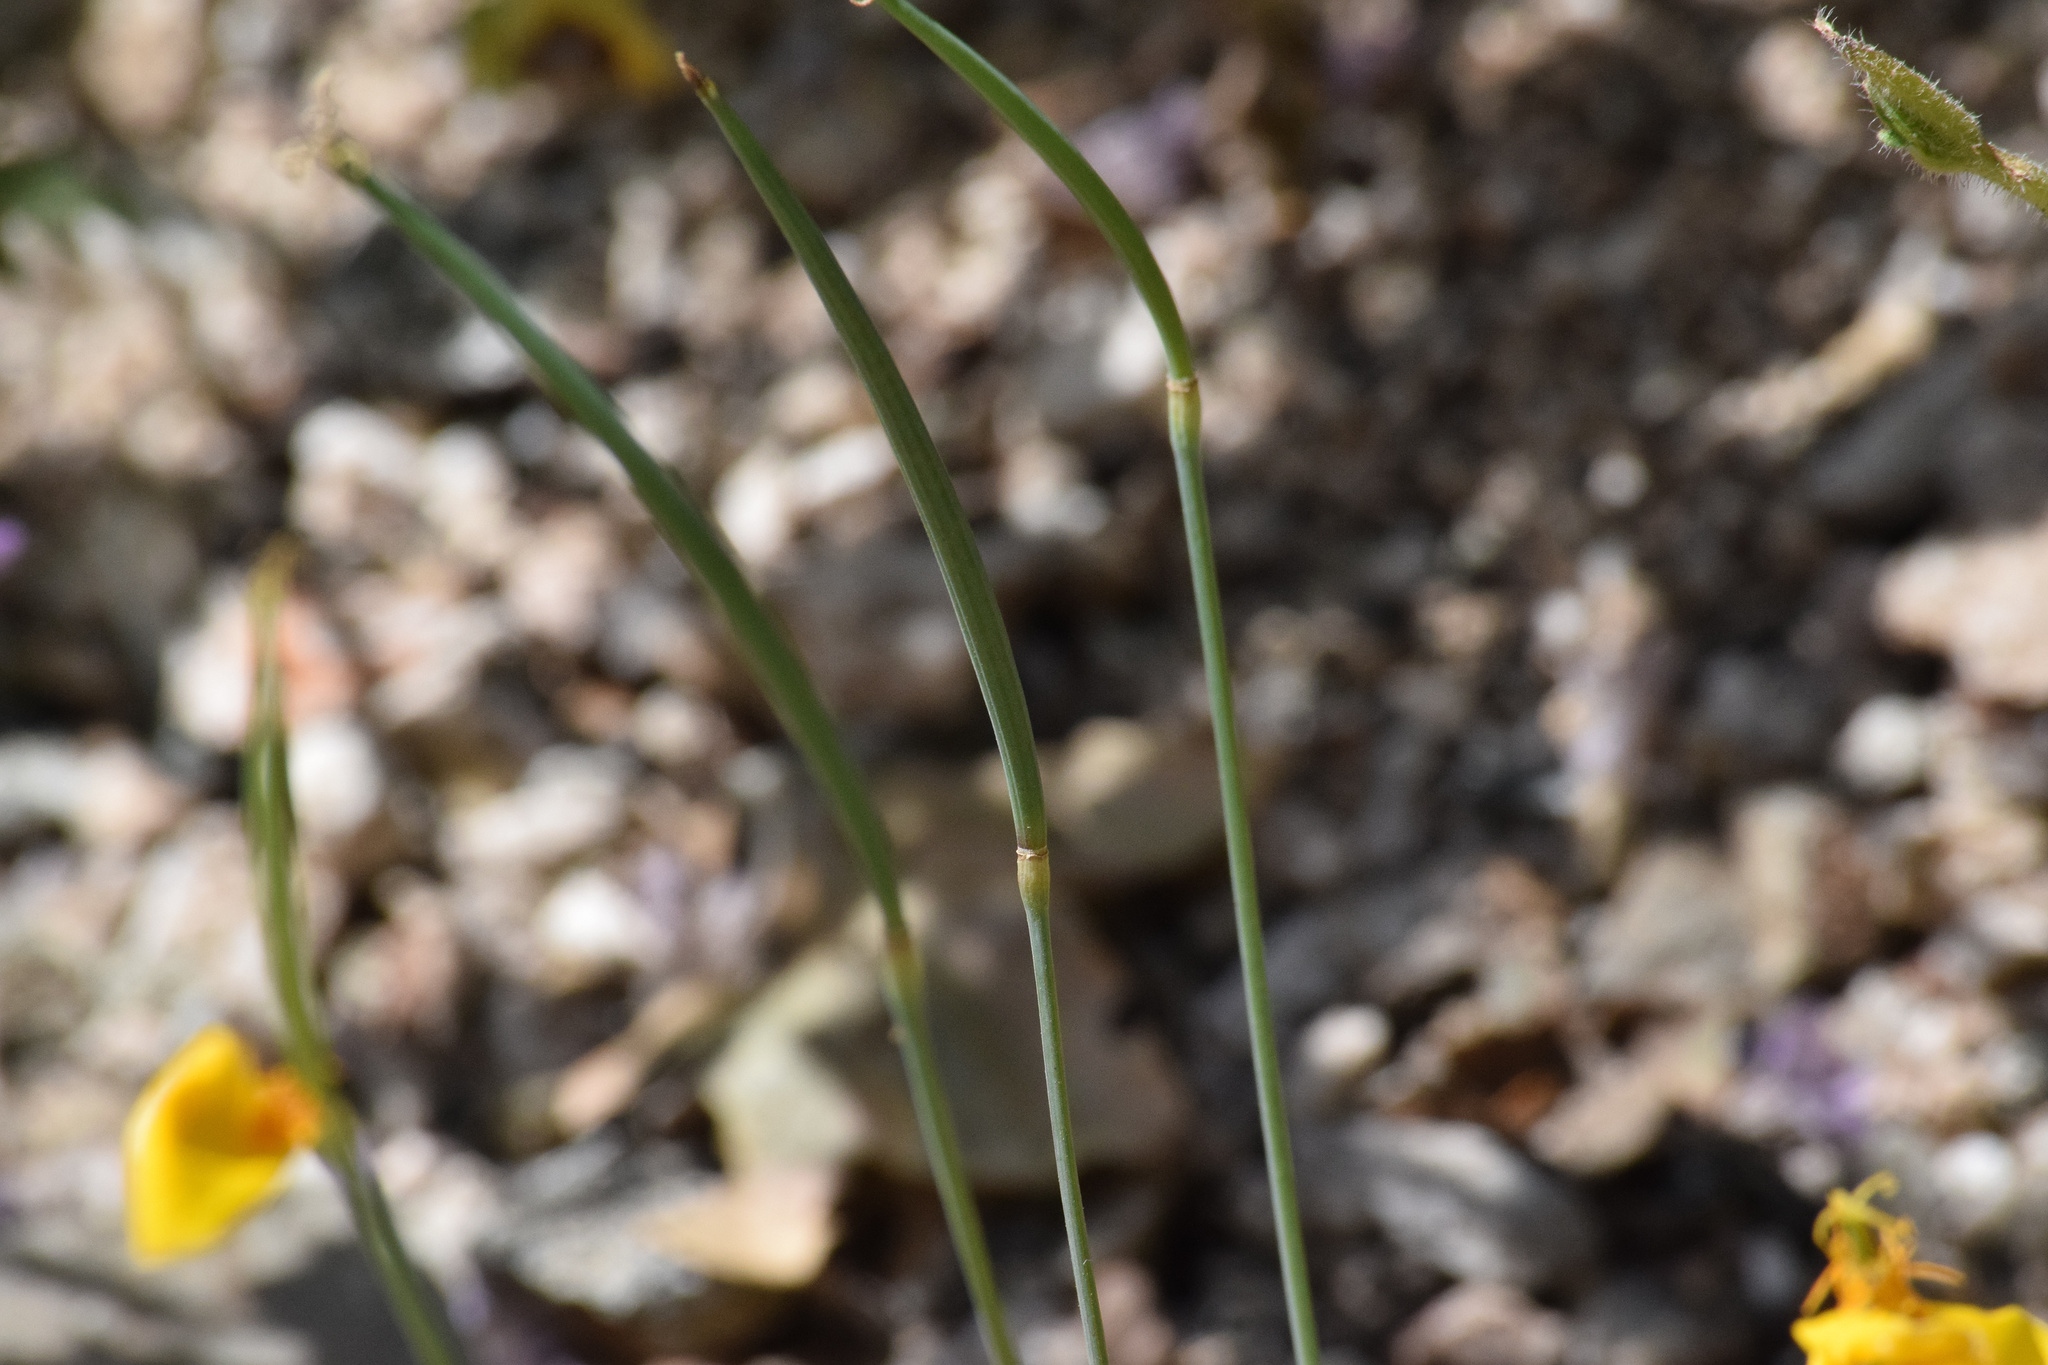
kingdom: Plantae
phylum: Tracheophyta
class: Magnoliopsida
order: Ranunculales
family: Papaveraceae
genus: Eschscholzia
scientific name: Eschscholzia caespitosa
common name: Tufted california-poppy
